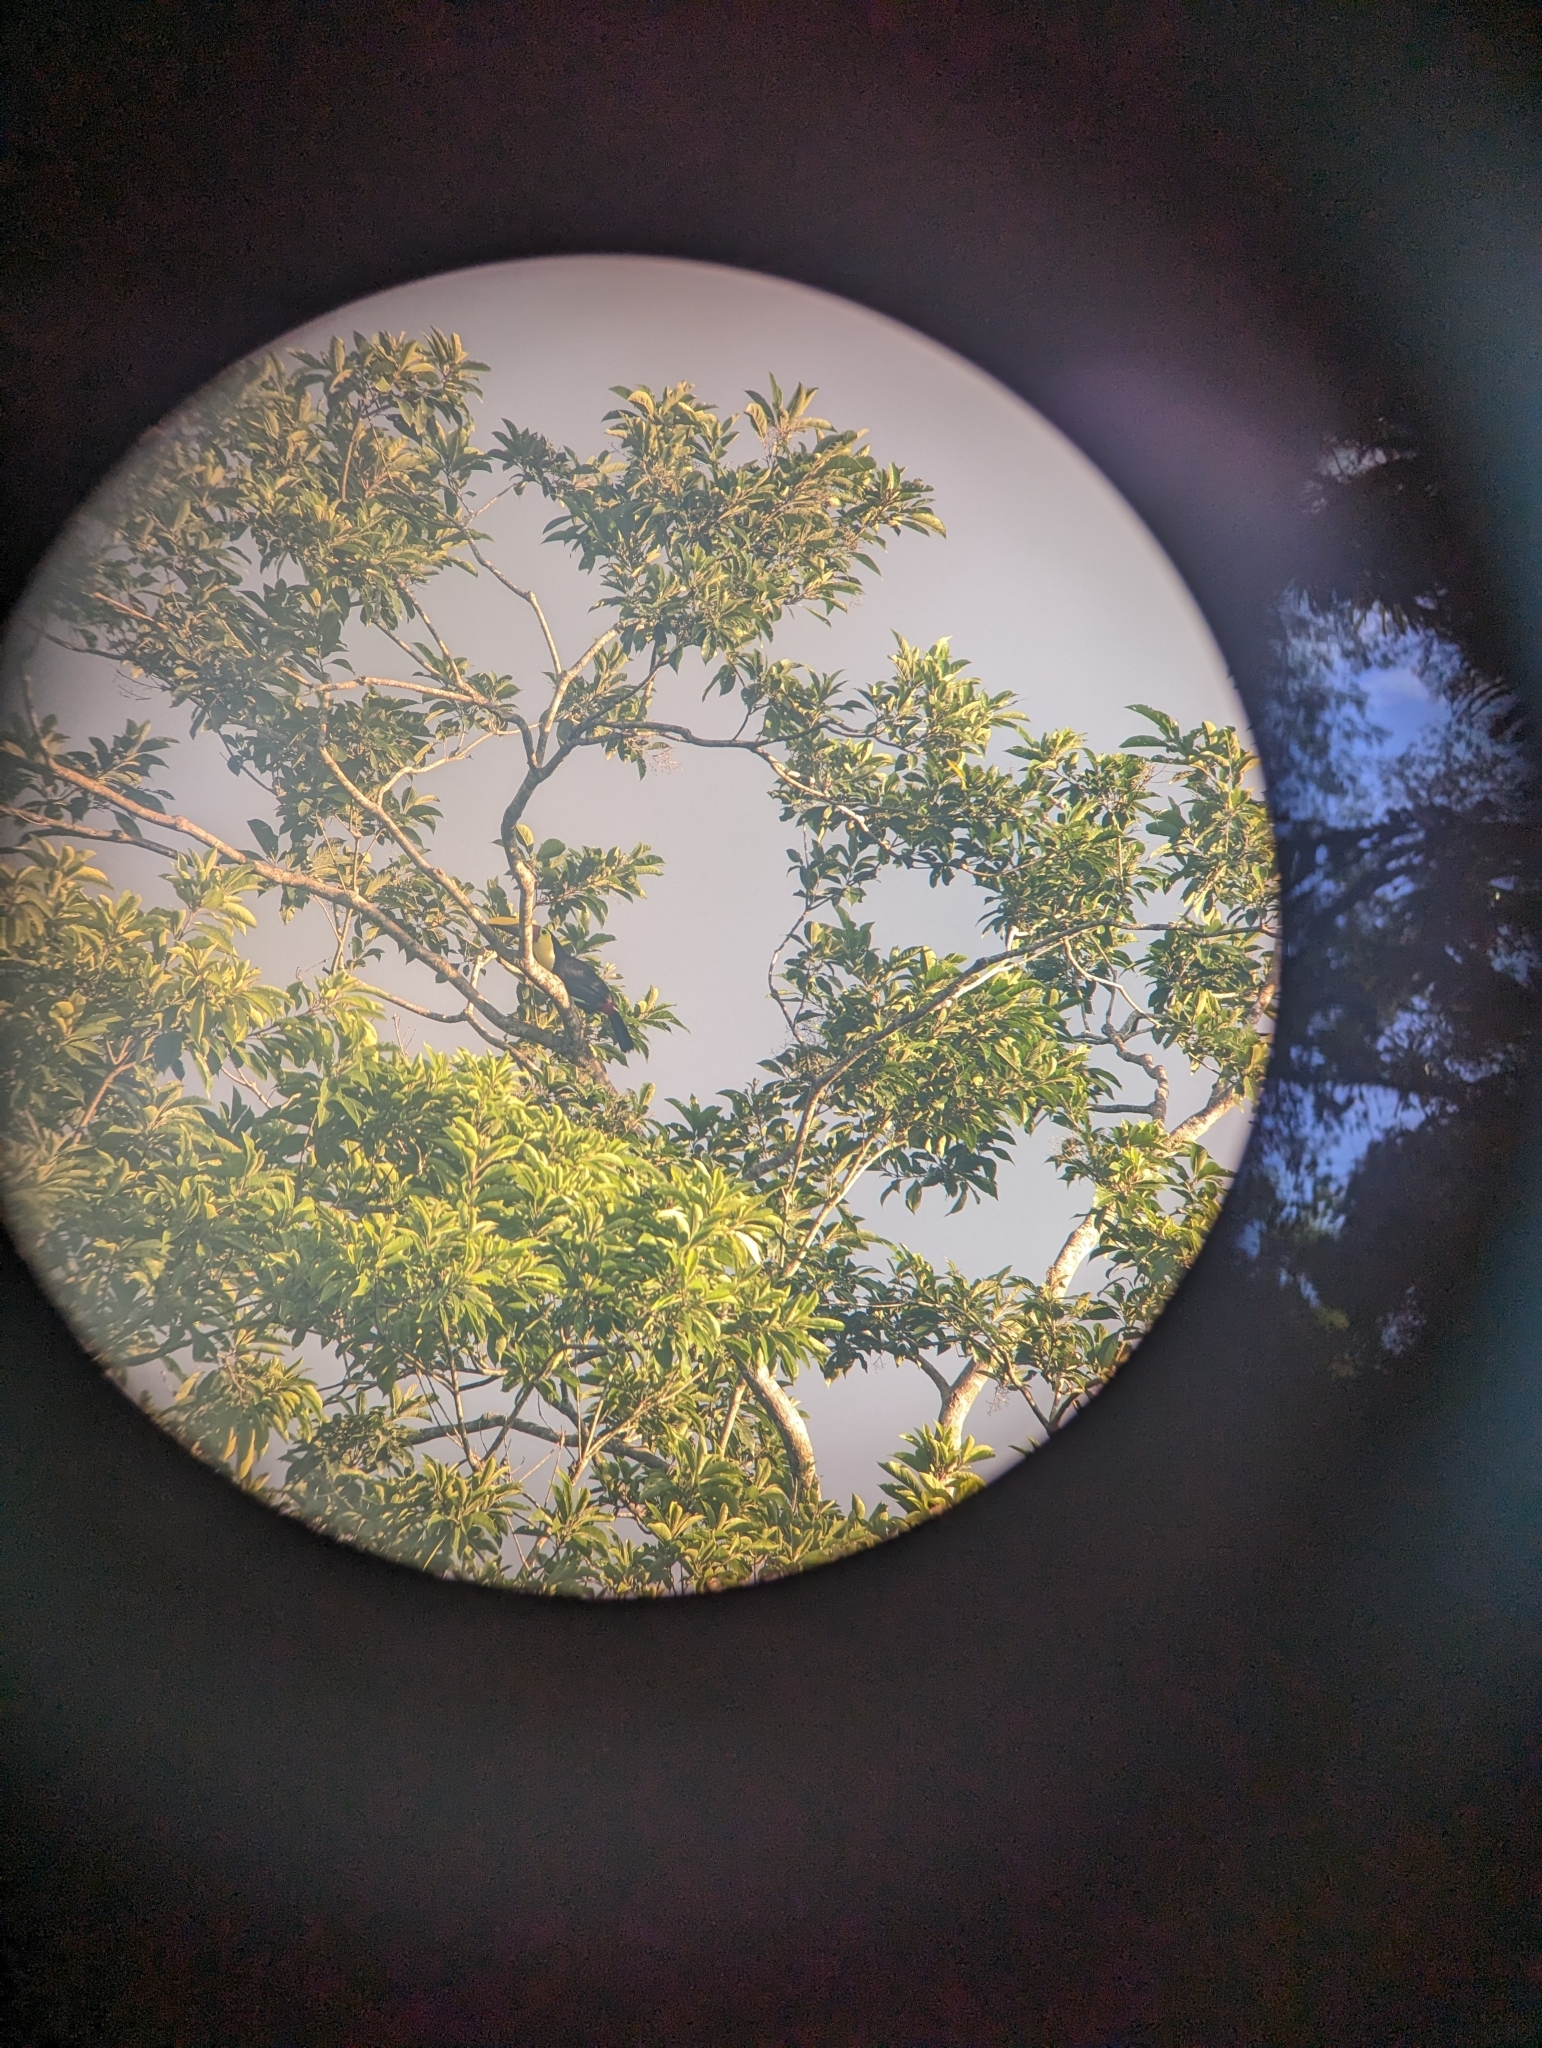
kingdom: Animalia
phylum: Chordata
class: Aves
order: Piciformes
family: Ramphastidae
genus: Ramphastos
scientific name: Ramphastos ambiguus
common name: Yellow-throated toucan
